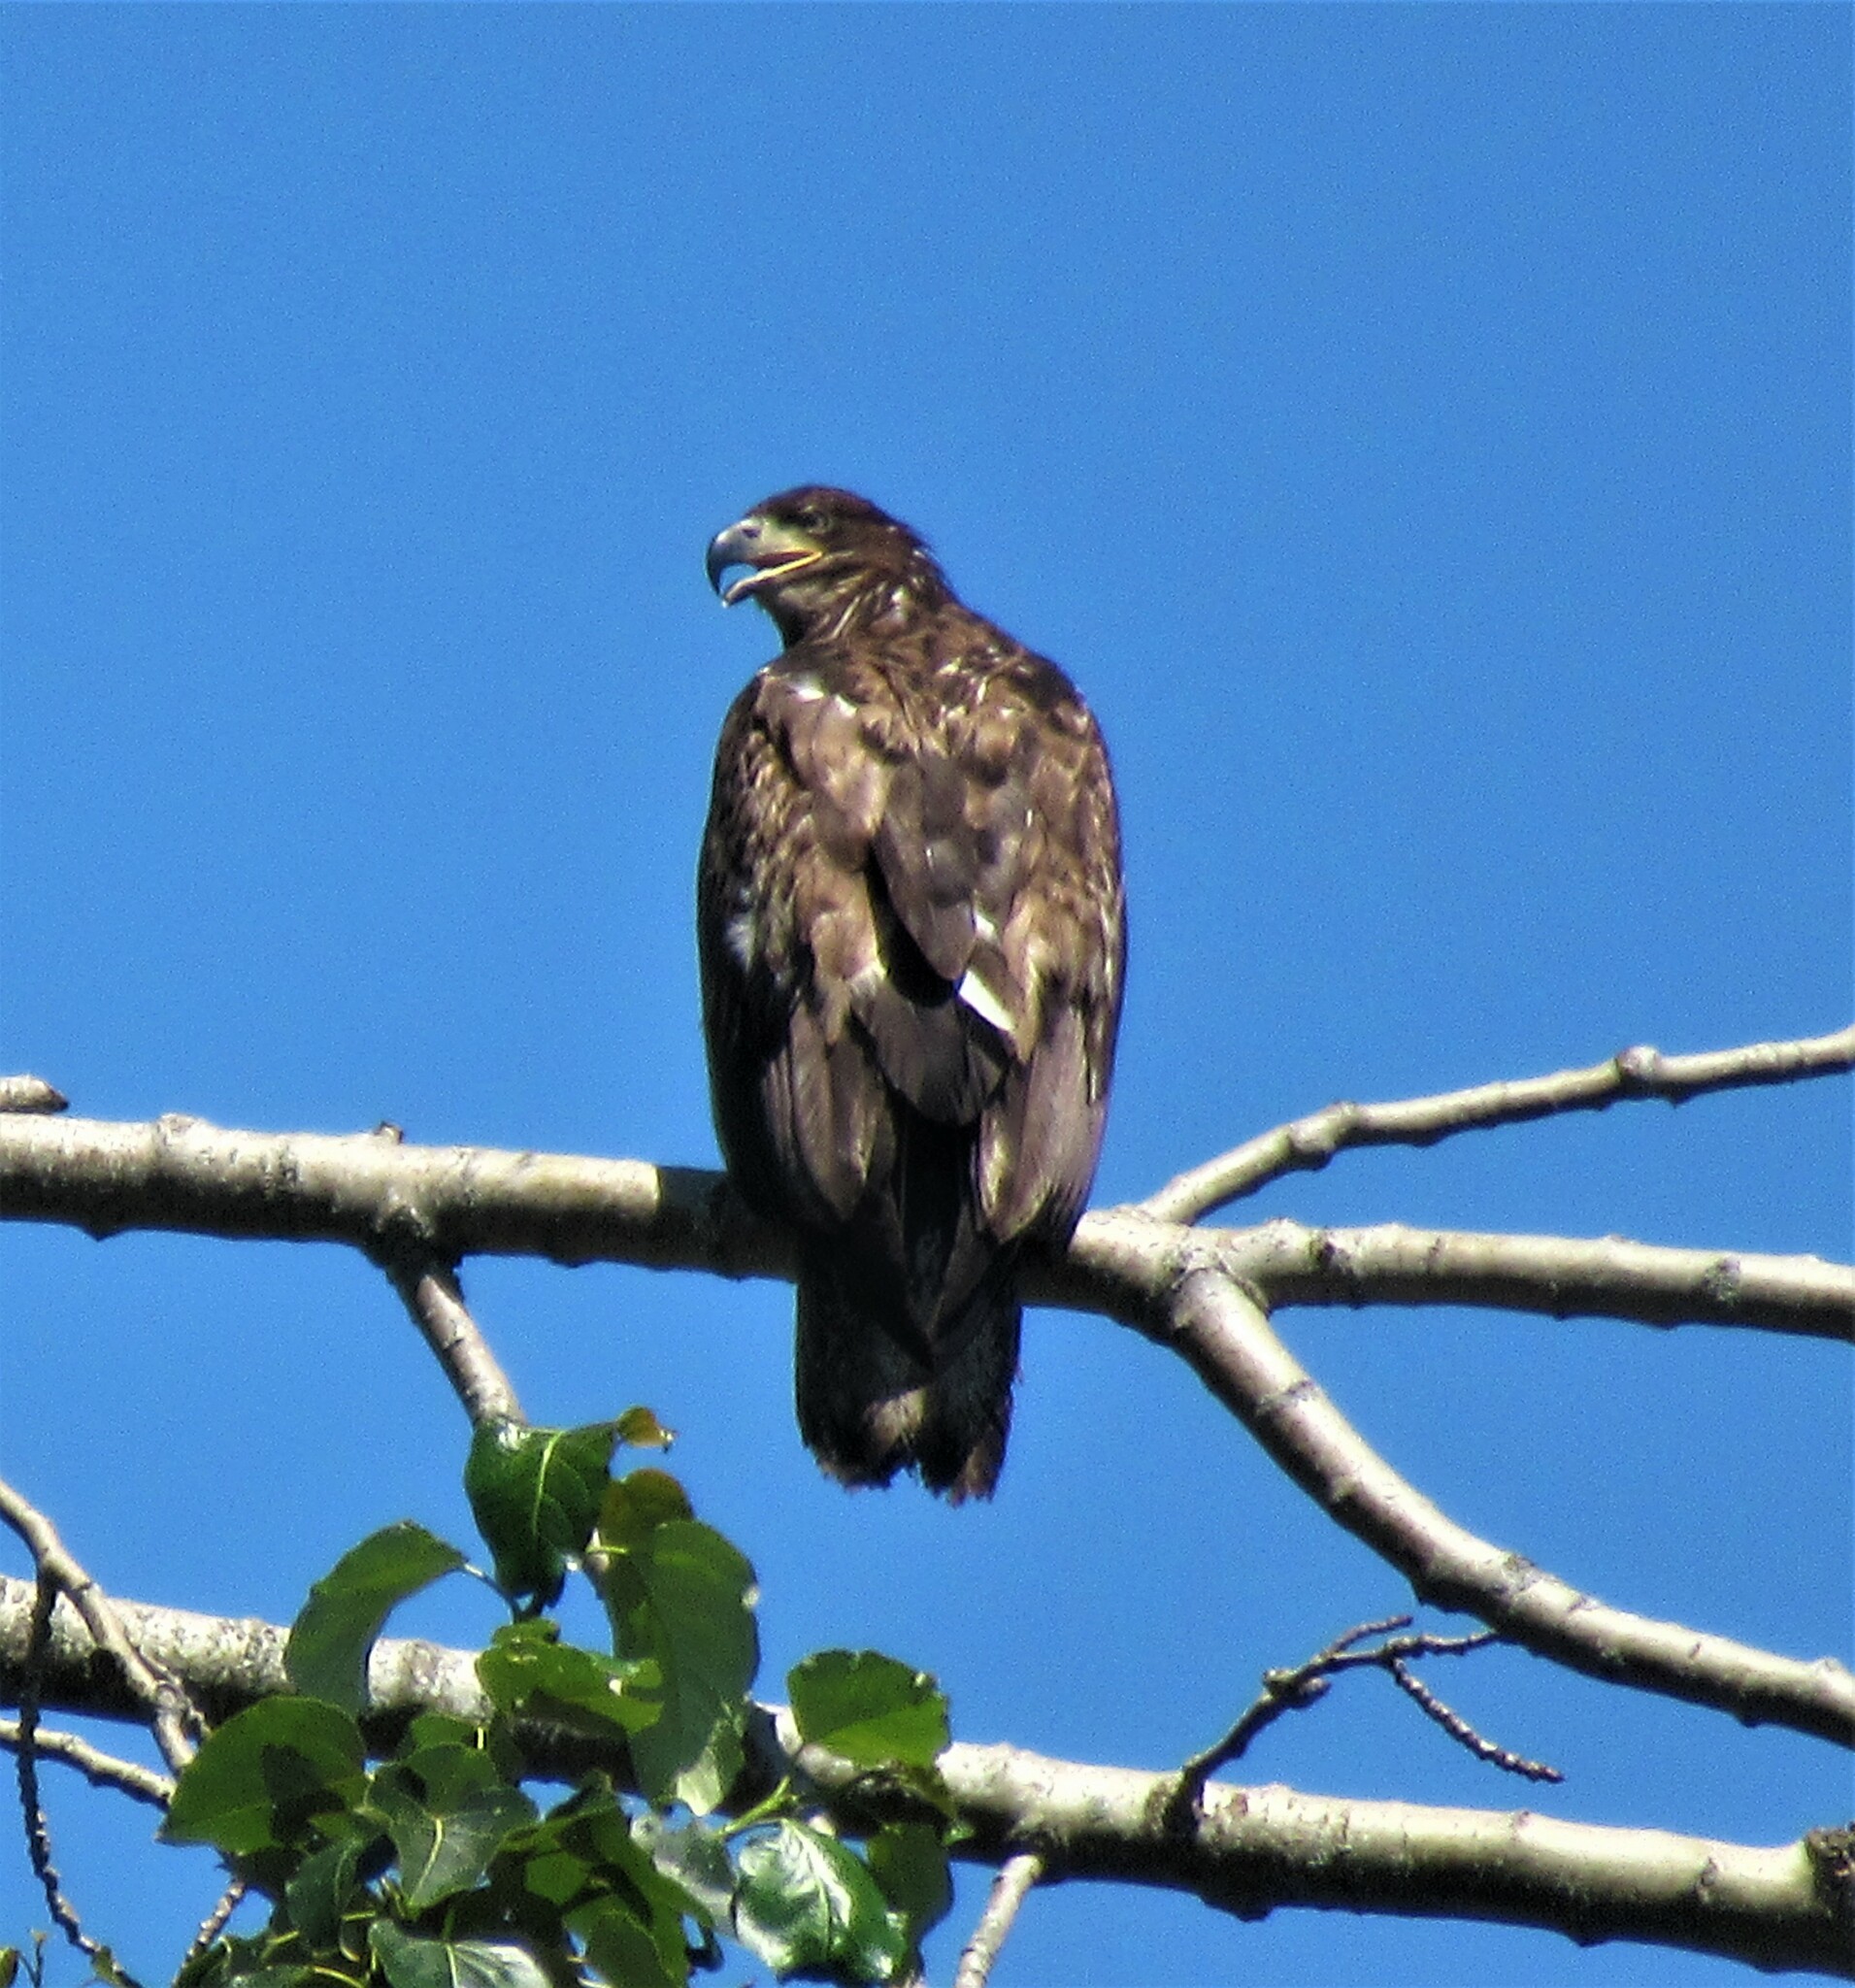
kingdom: Animalia
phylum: Chordata
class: Aves
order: Accipitriformes
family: Accipitridae
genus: Haliaeetus
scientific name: Haliaeetus leucocephalus
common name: Bald eagle
